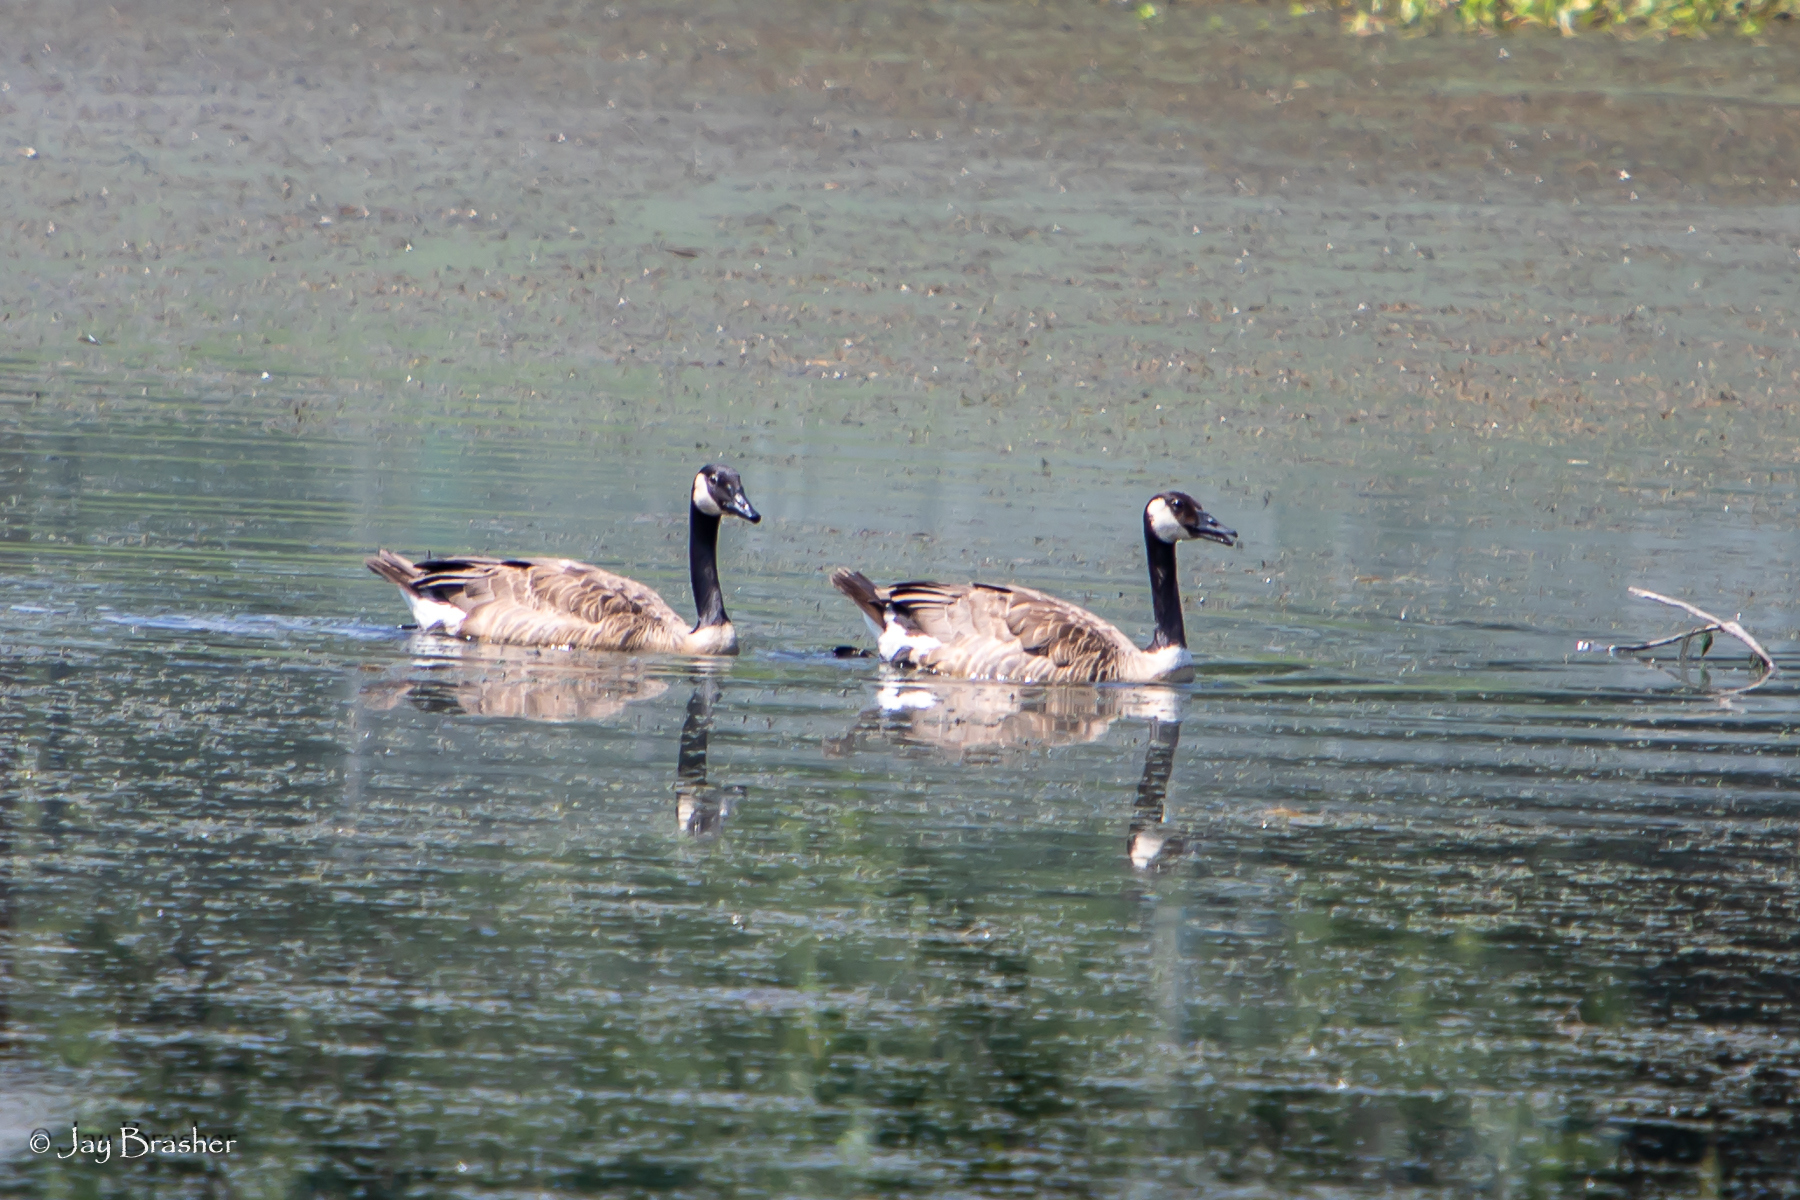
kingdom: Animalia
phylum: Chordata
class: Aves
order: Anseriformes
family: Anatidae
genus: Branta
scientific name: Branta canadensis
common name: Canada goose
